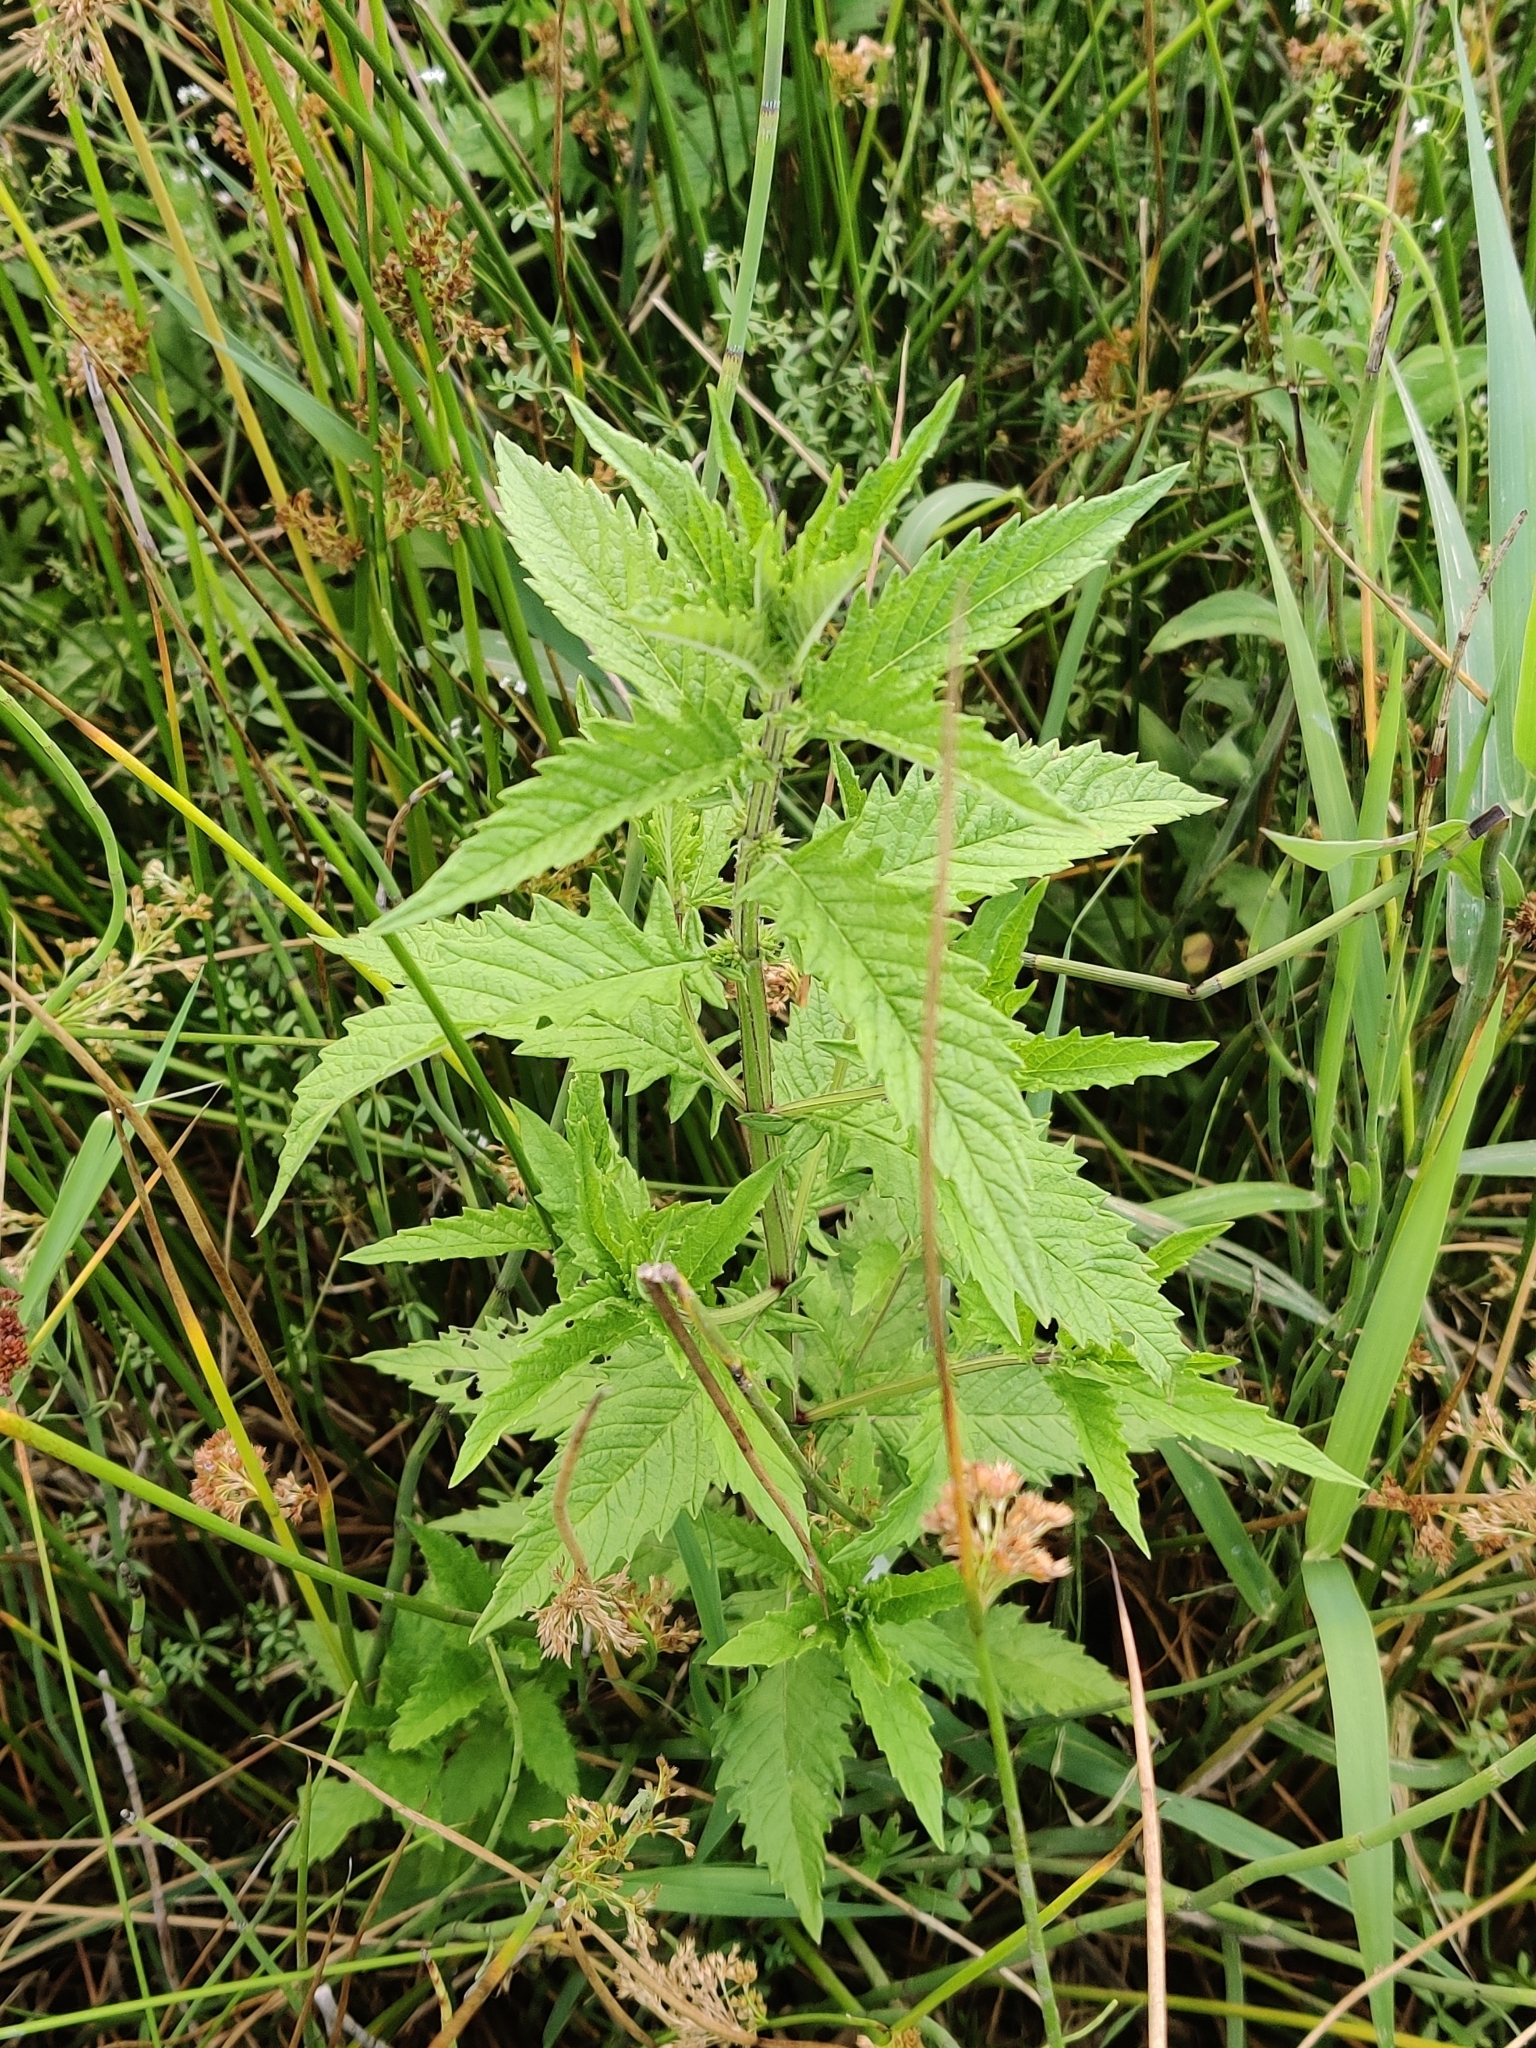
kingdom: Plantae
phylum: Tracheophyta
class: Magnoliopsida
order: Lamiales
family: Lamiaceae
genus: Lycopus
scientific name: Lycopus europaeus
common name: European bugleweed
